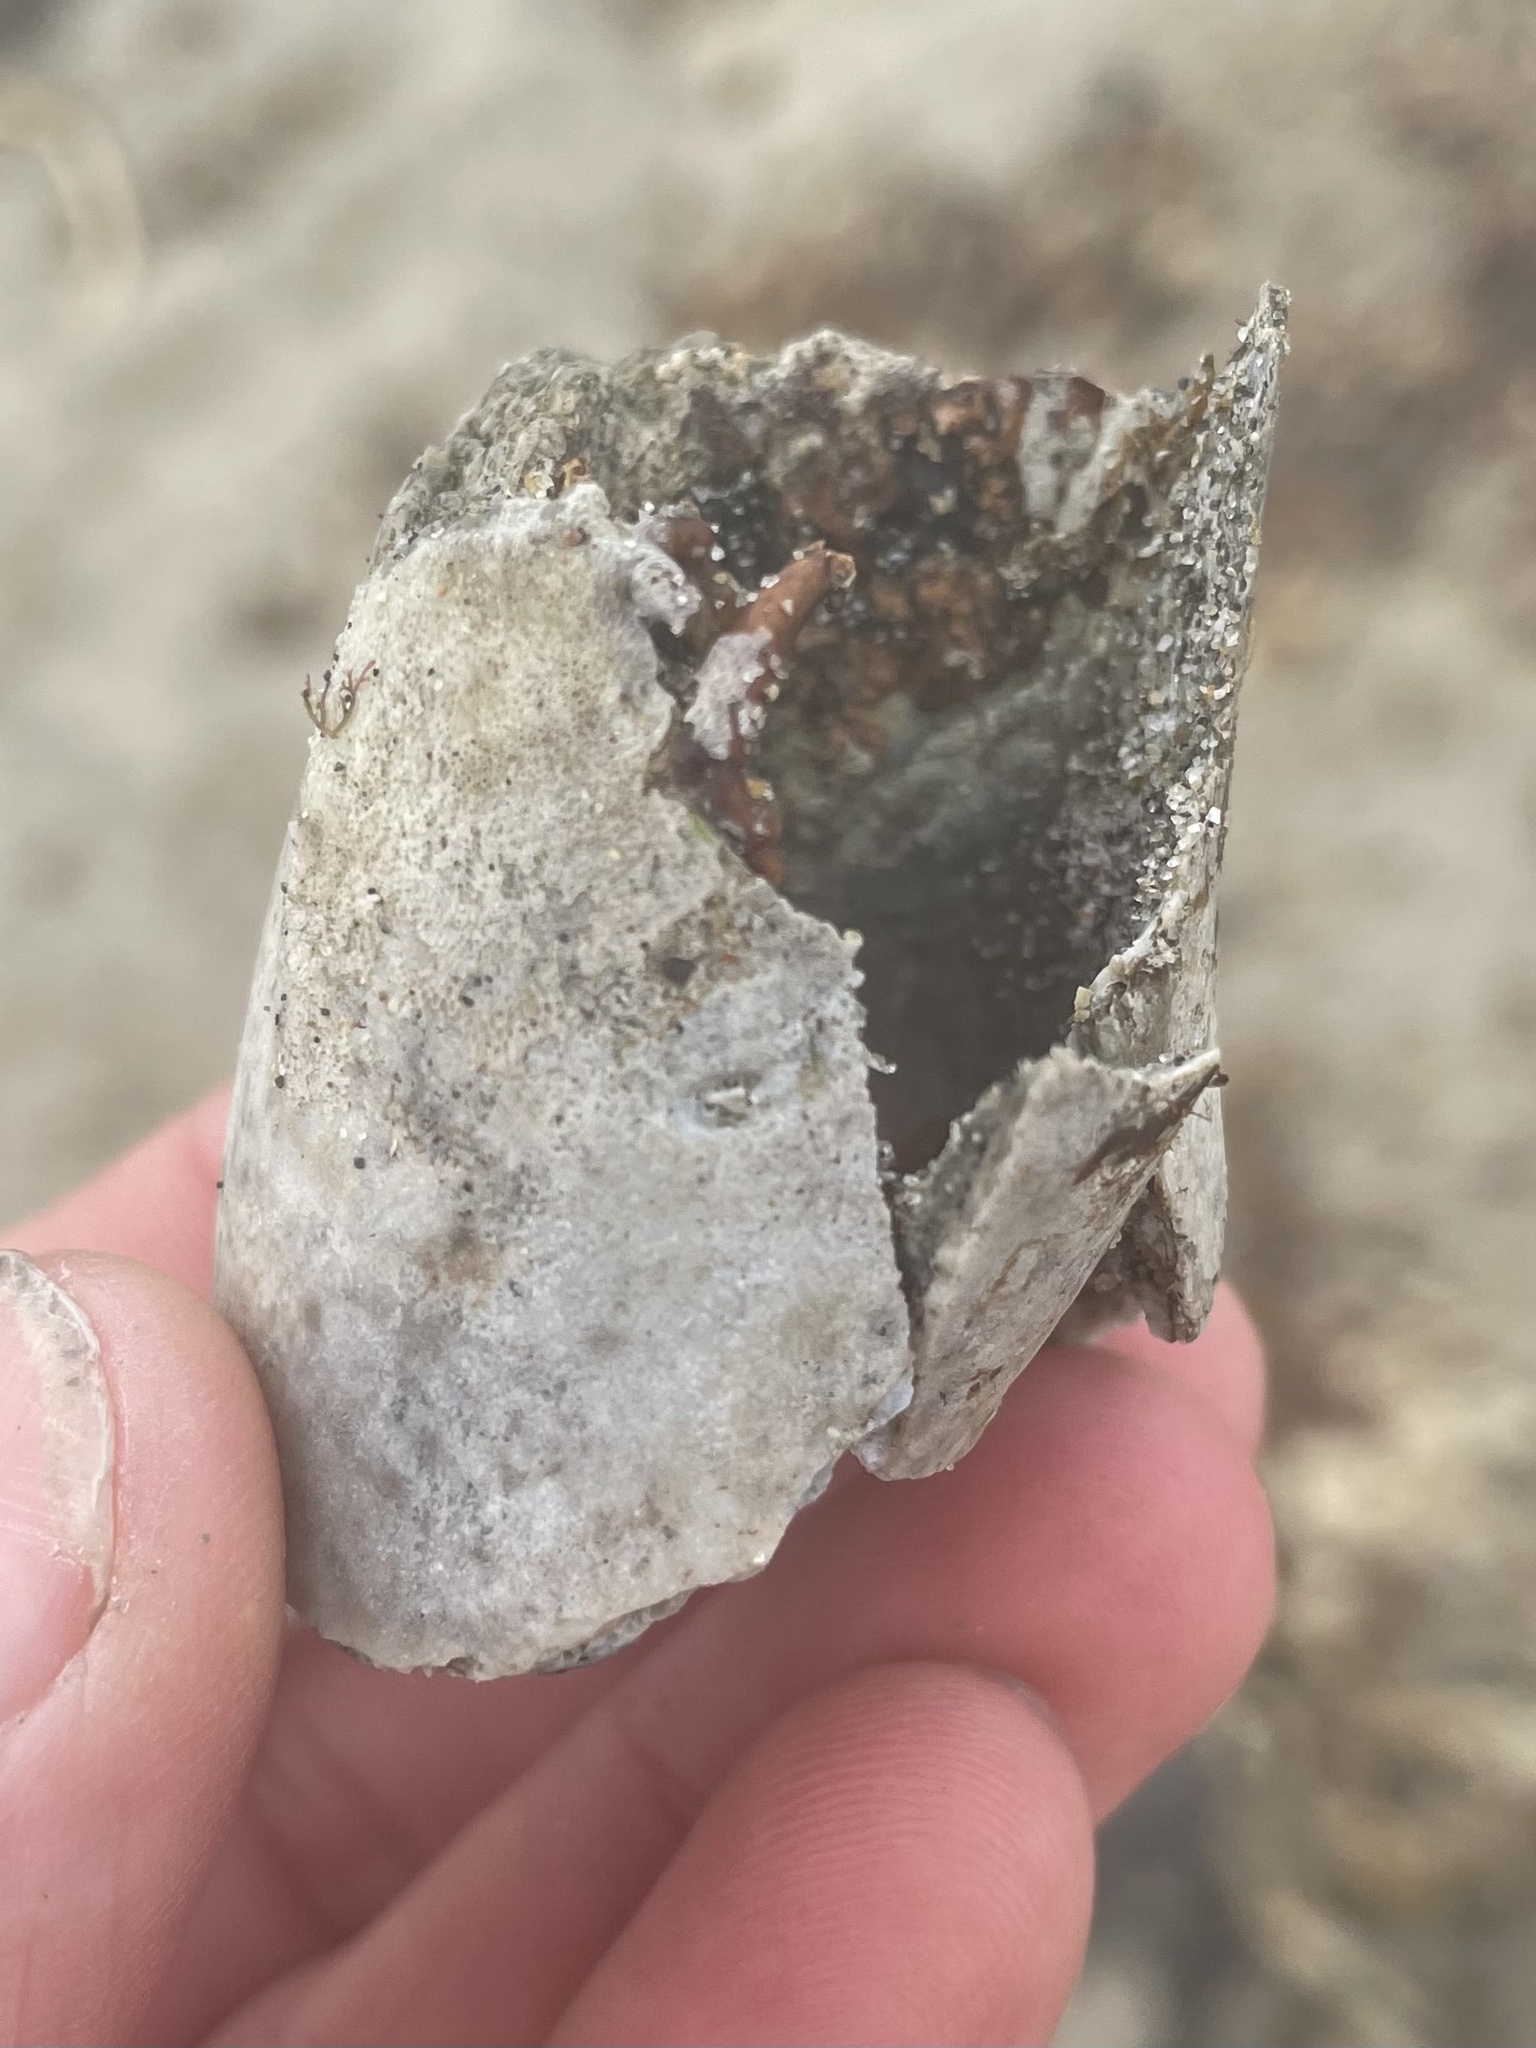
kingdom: Animalia
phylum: Mollusca
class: Bivalvia
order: Myida
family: Pholadidae
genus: Parapholas
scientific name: Parapholas californica
